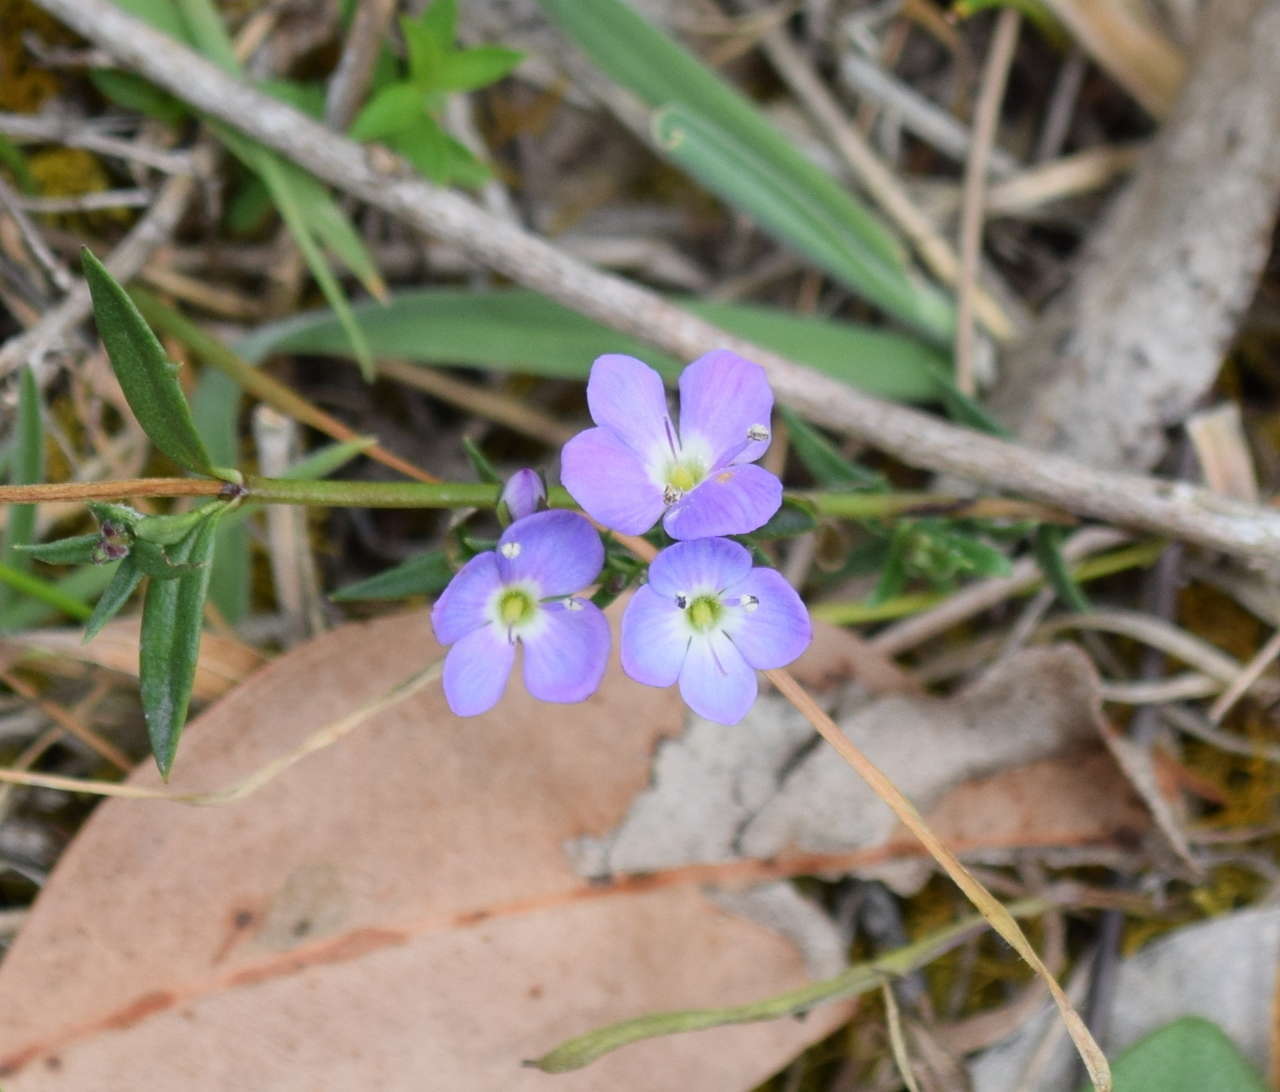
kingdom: Plantae
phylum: Tracheophyta
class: Magnoliopsida
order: Lamiales
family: Plantaginaceae
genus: Veronica
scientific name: Veronica gracilis
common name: Slender speedwell
